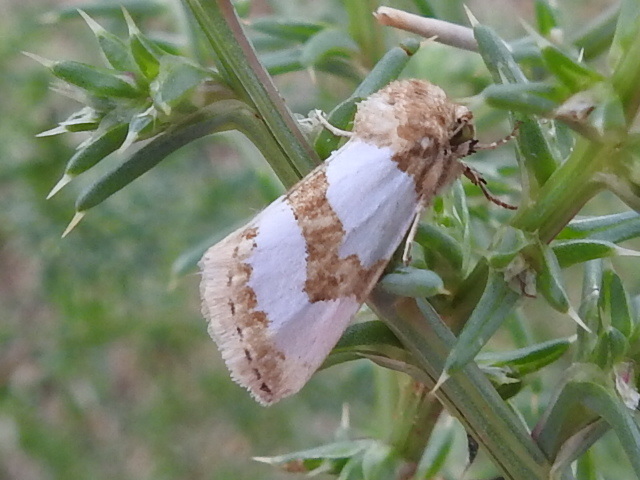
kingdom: Animalia
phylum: Arthropoda
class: Insecta
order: Lepidoptera
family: Noctuidae
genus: Schinia
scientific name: Schinia chrysellus
